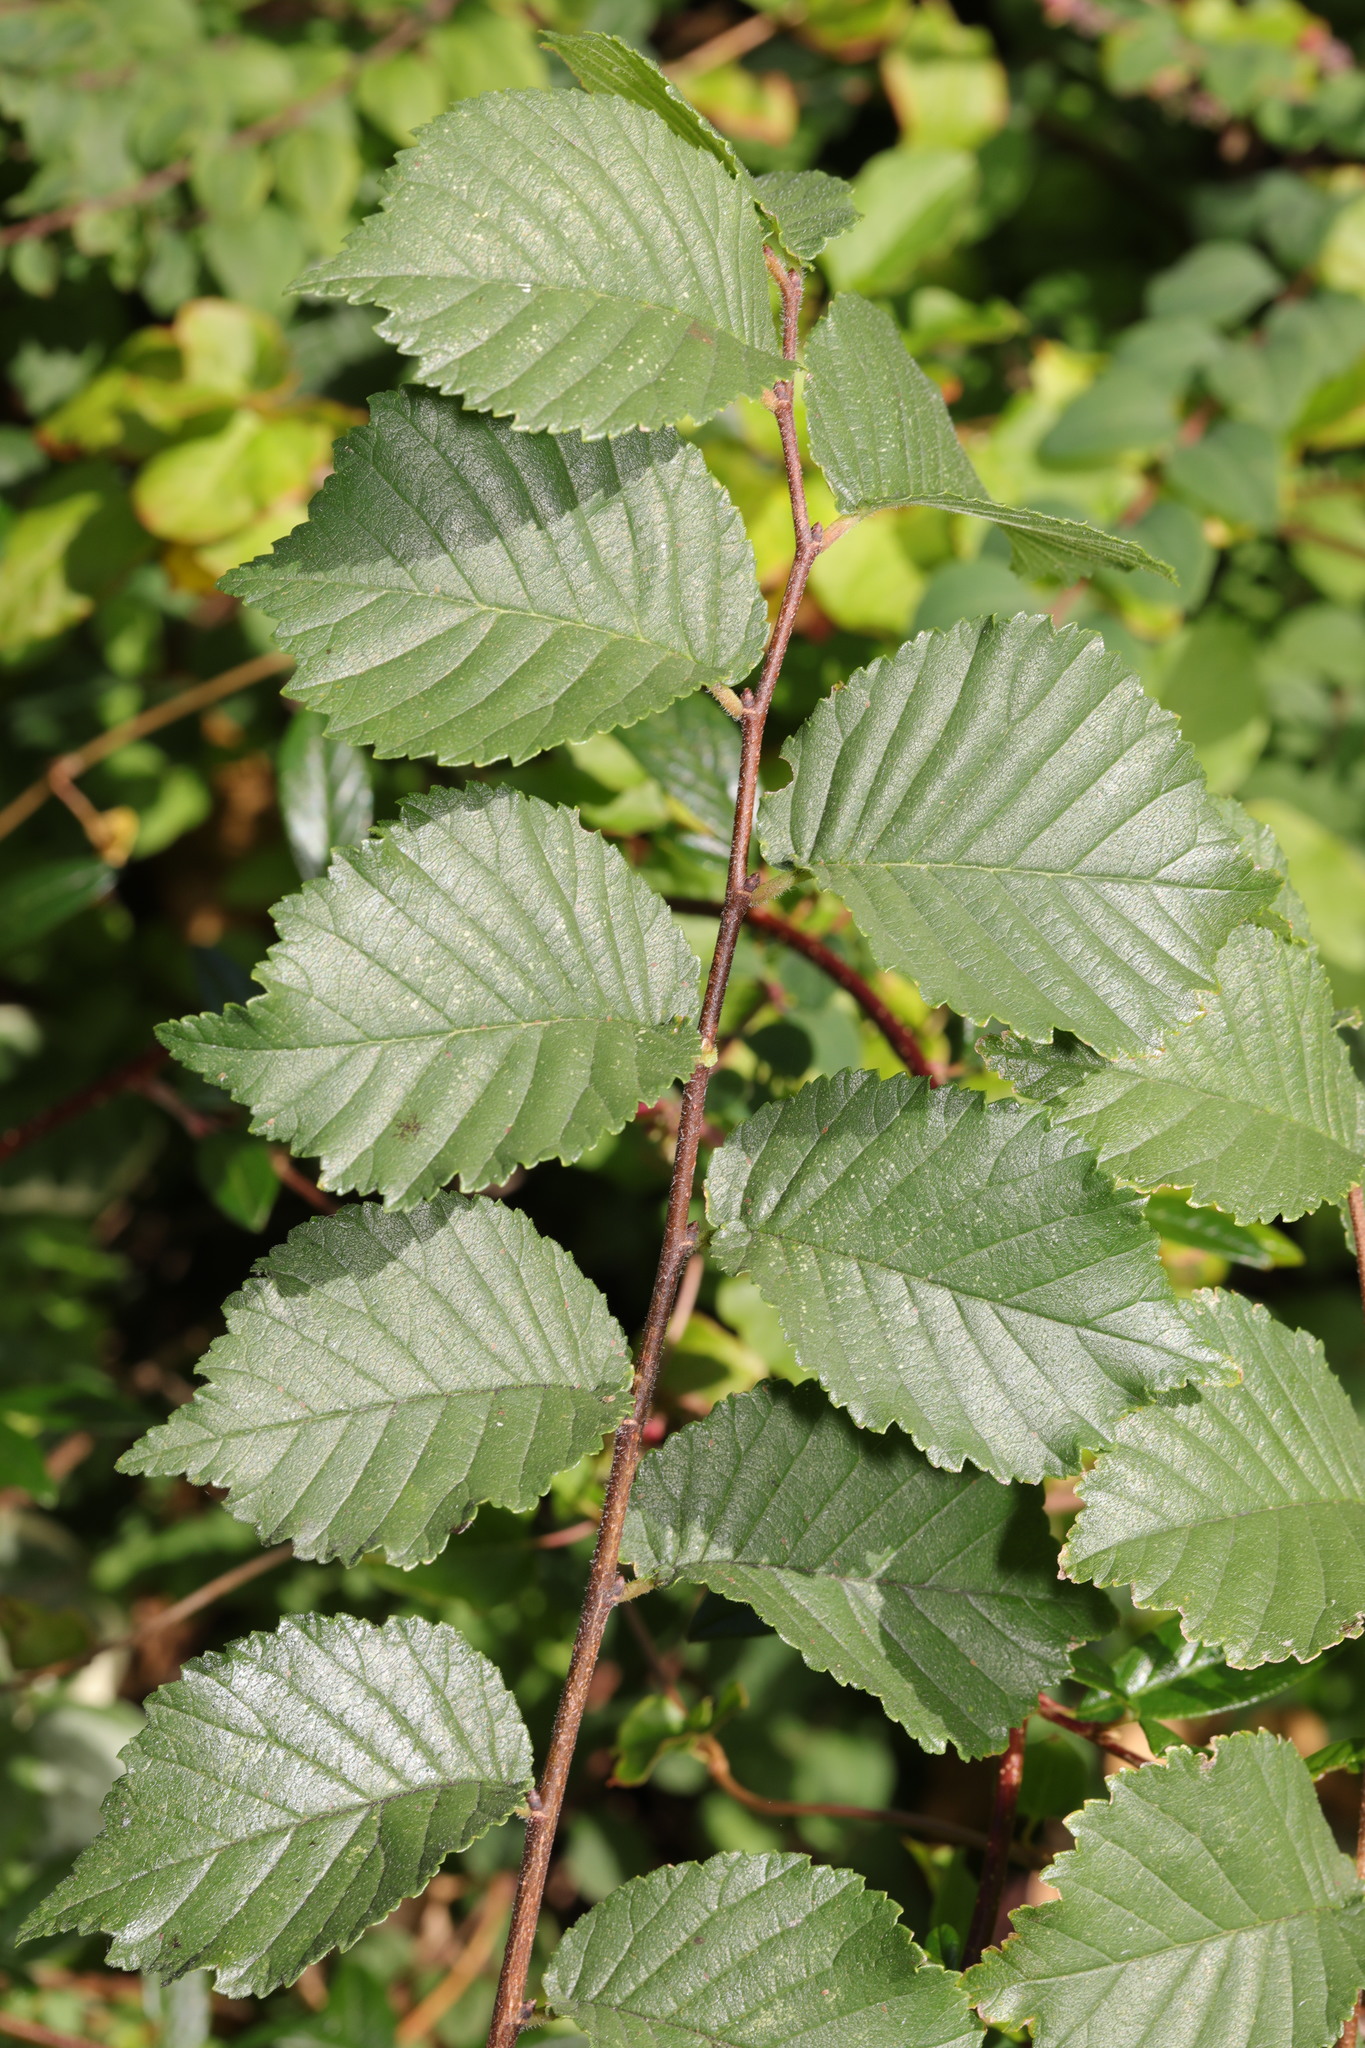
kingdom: Plantae
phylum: Tracheophyta
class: Magnoliopsida
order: Rosales
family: Ulmaceae
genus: Ulmus
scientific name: Ulmus glabra
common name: Wych elm
